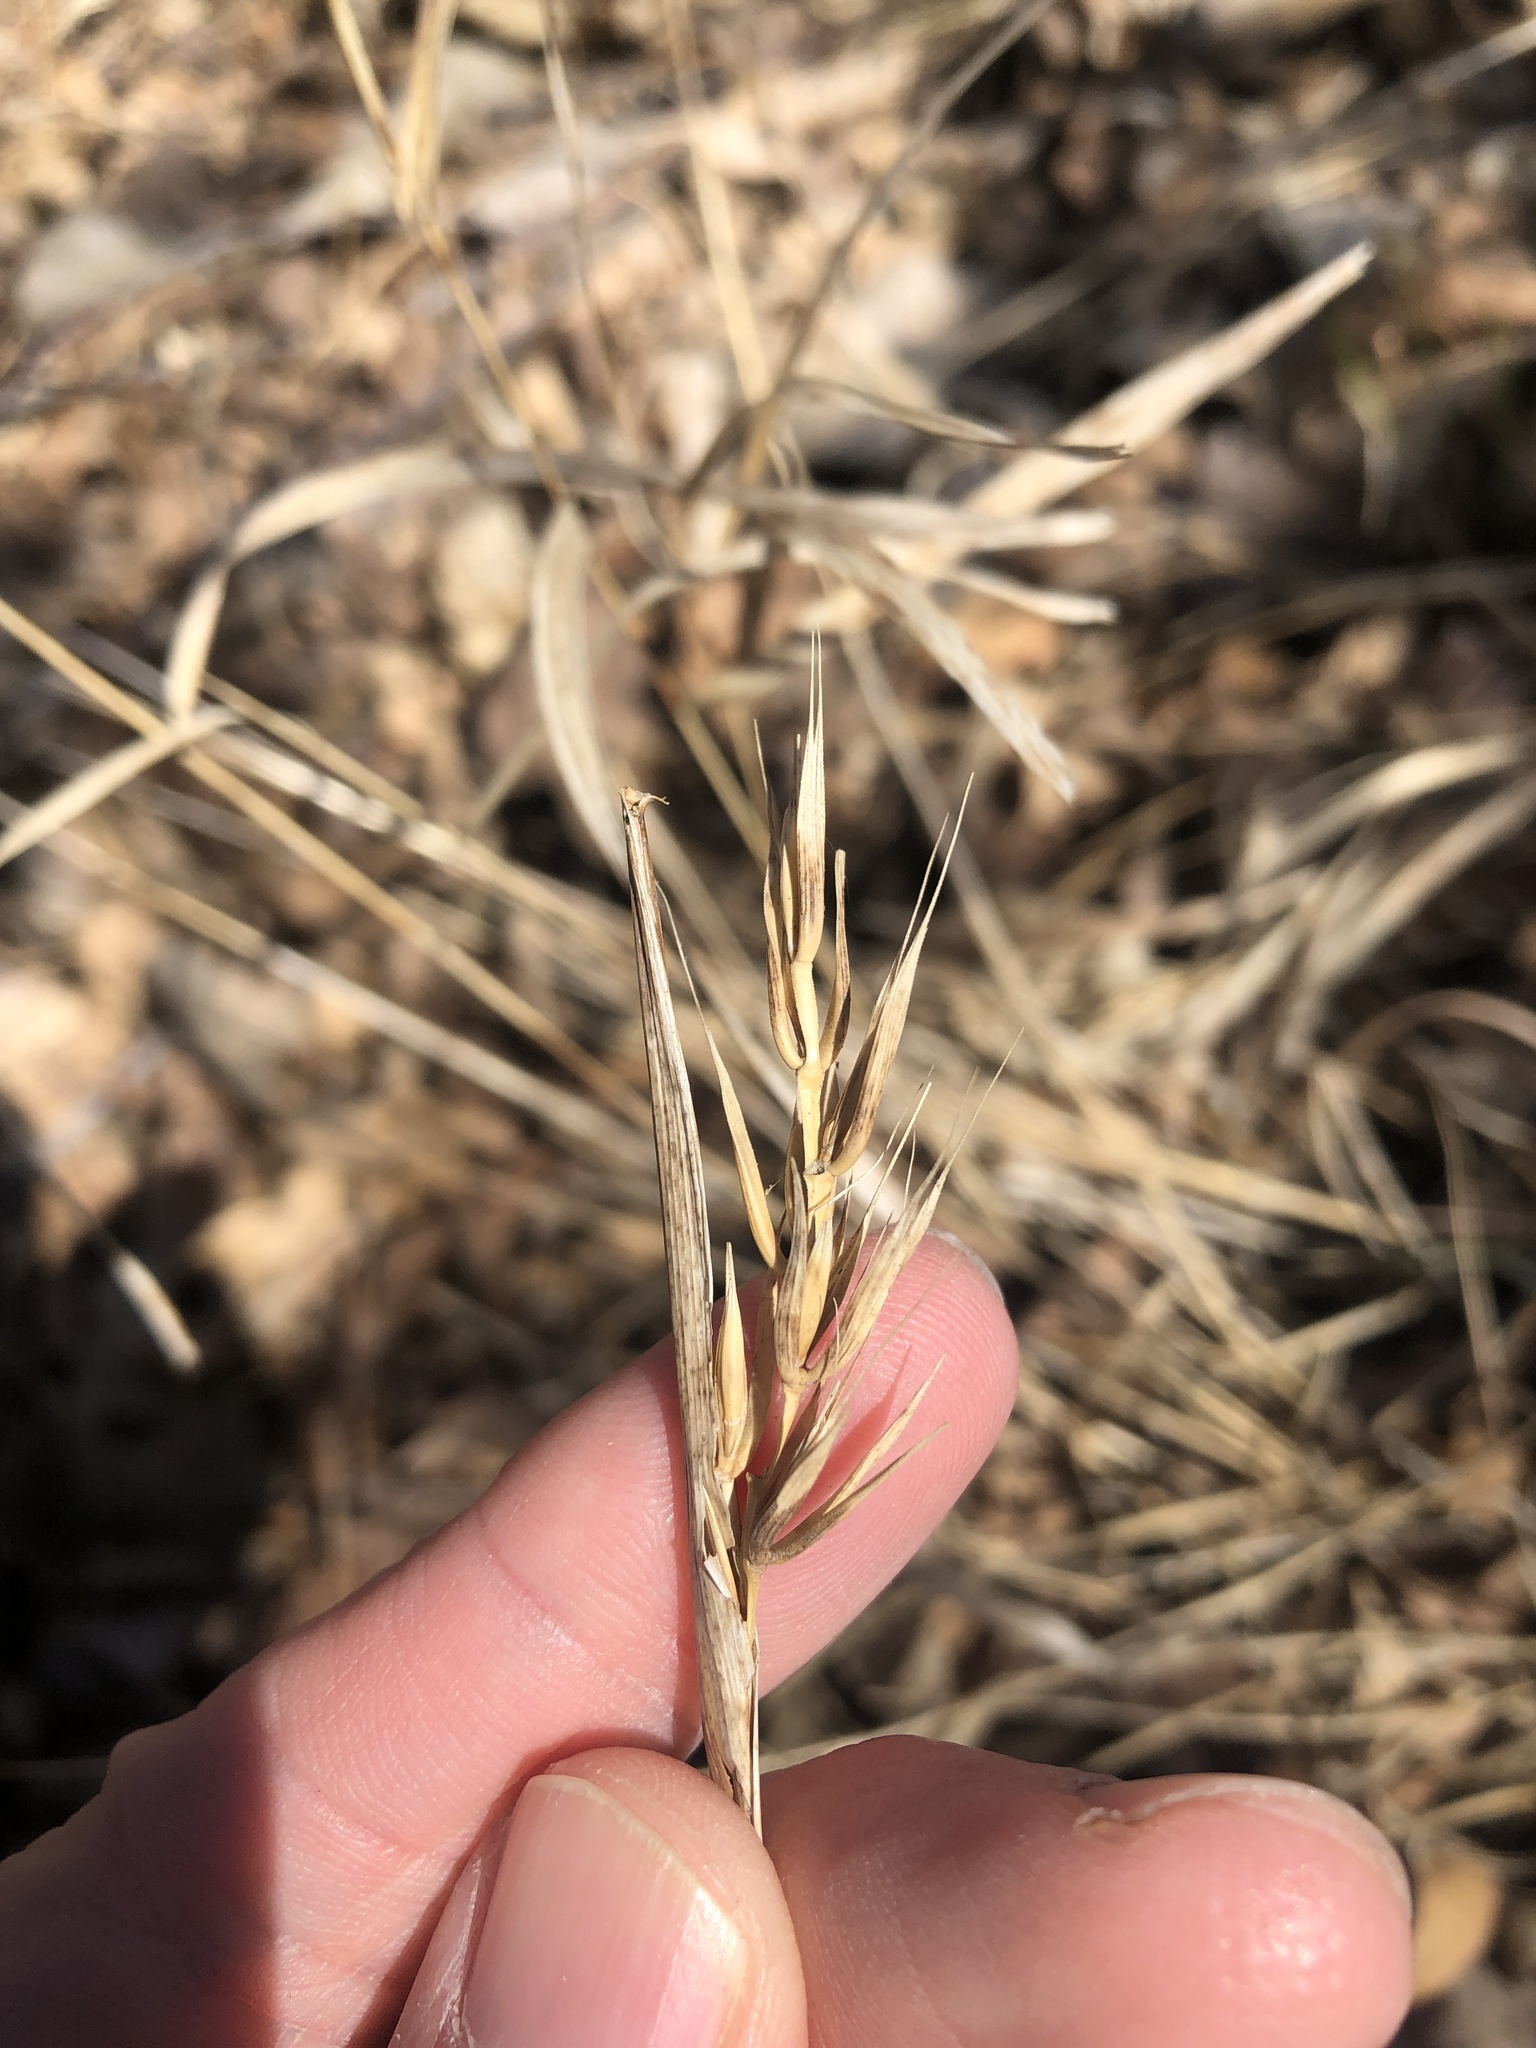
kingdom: Plantae
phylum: Tracheophyta
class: Liliopsida
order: Poales
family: Poaceae
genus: Elymus
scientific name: Elymus virginicus
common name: Common eastern wildrye
